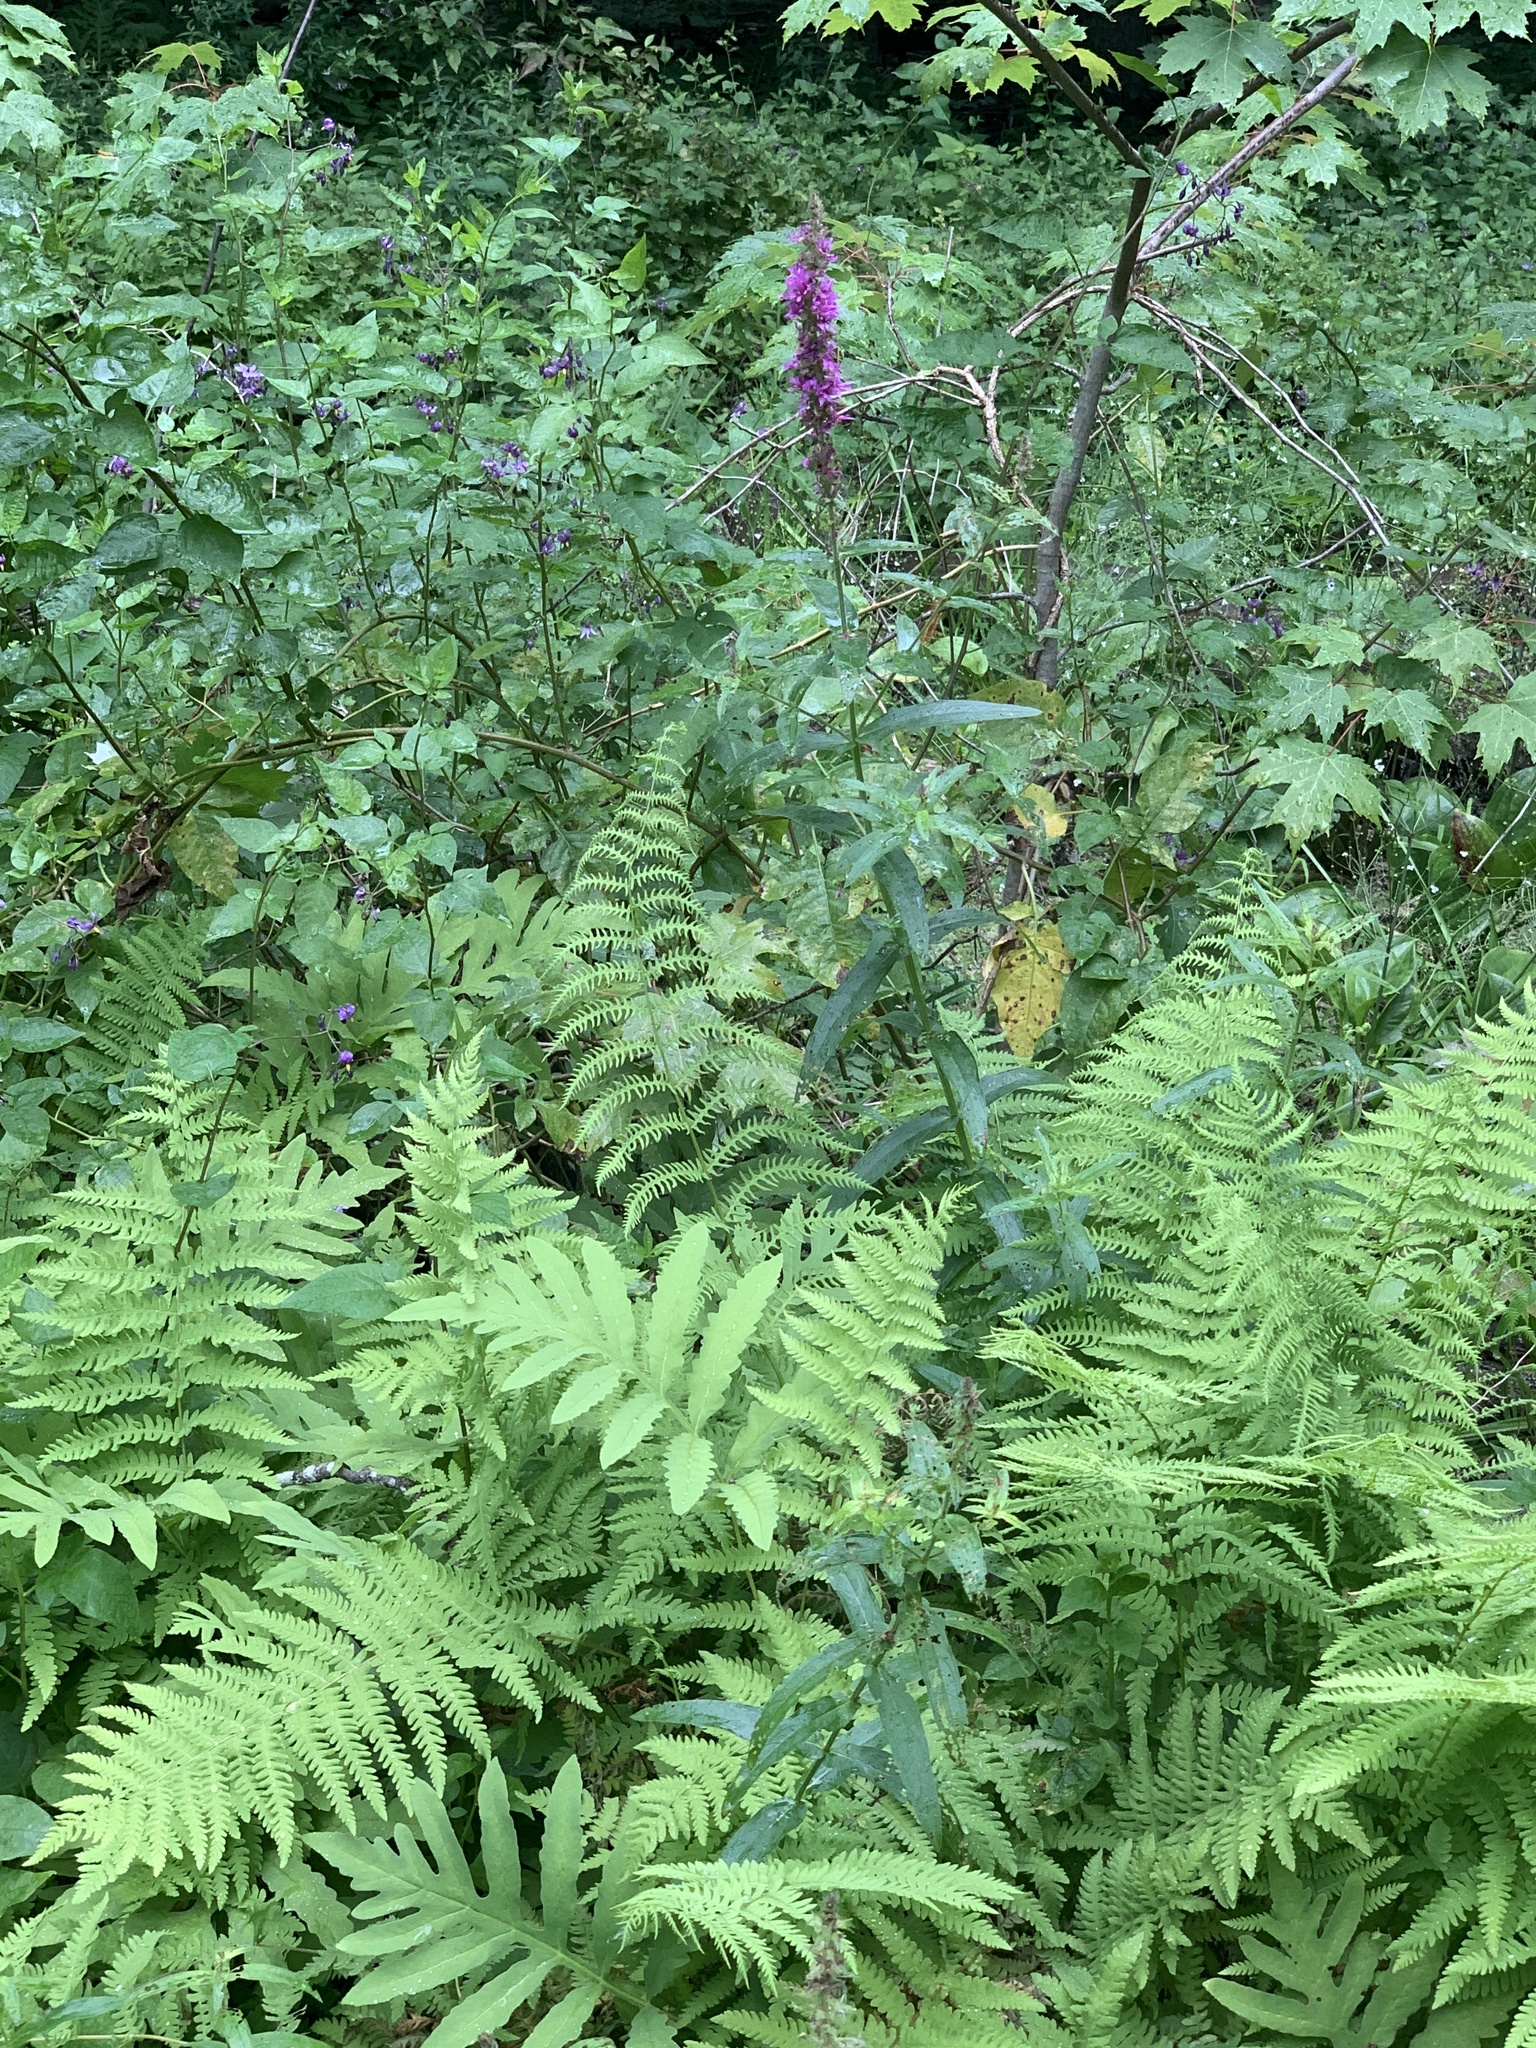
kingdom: Plantae
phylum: Tracheophyta
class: Magnoliopsida
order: Myrtales
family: Lythraceae
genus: Lythrum
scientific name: Lythrum salicaria
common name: Purple loosestrife
